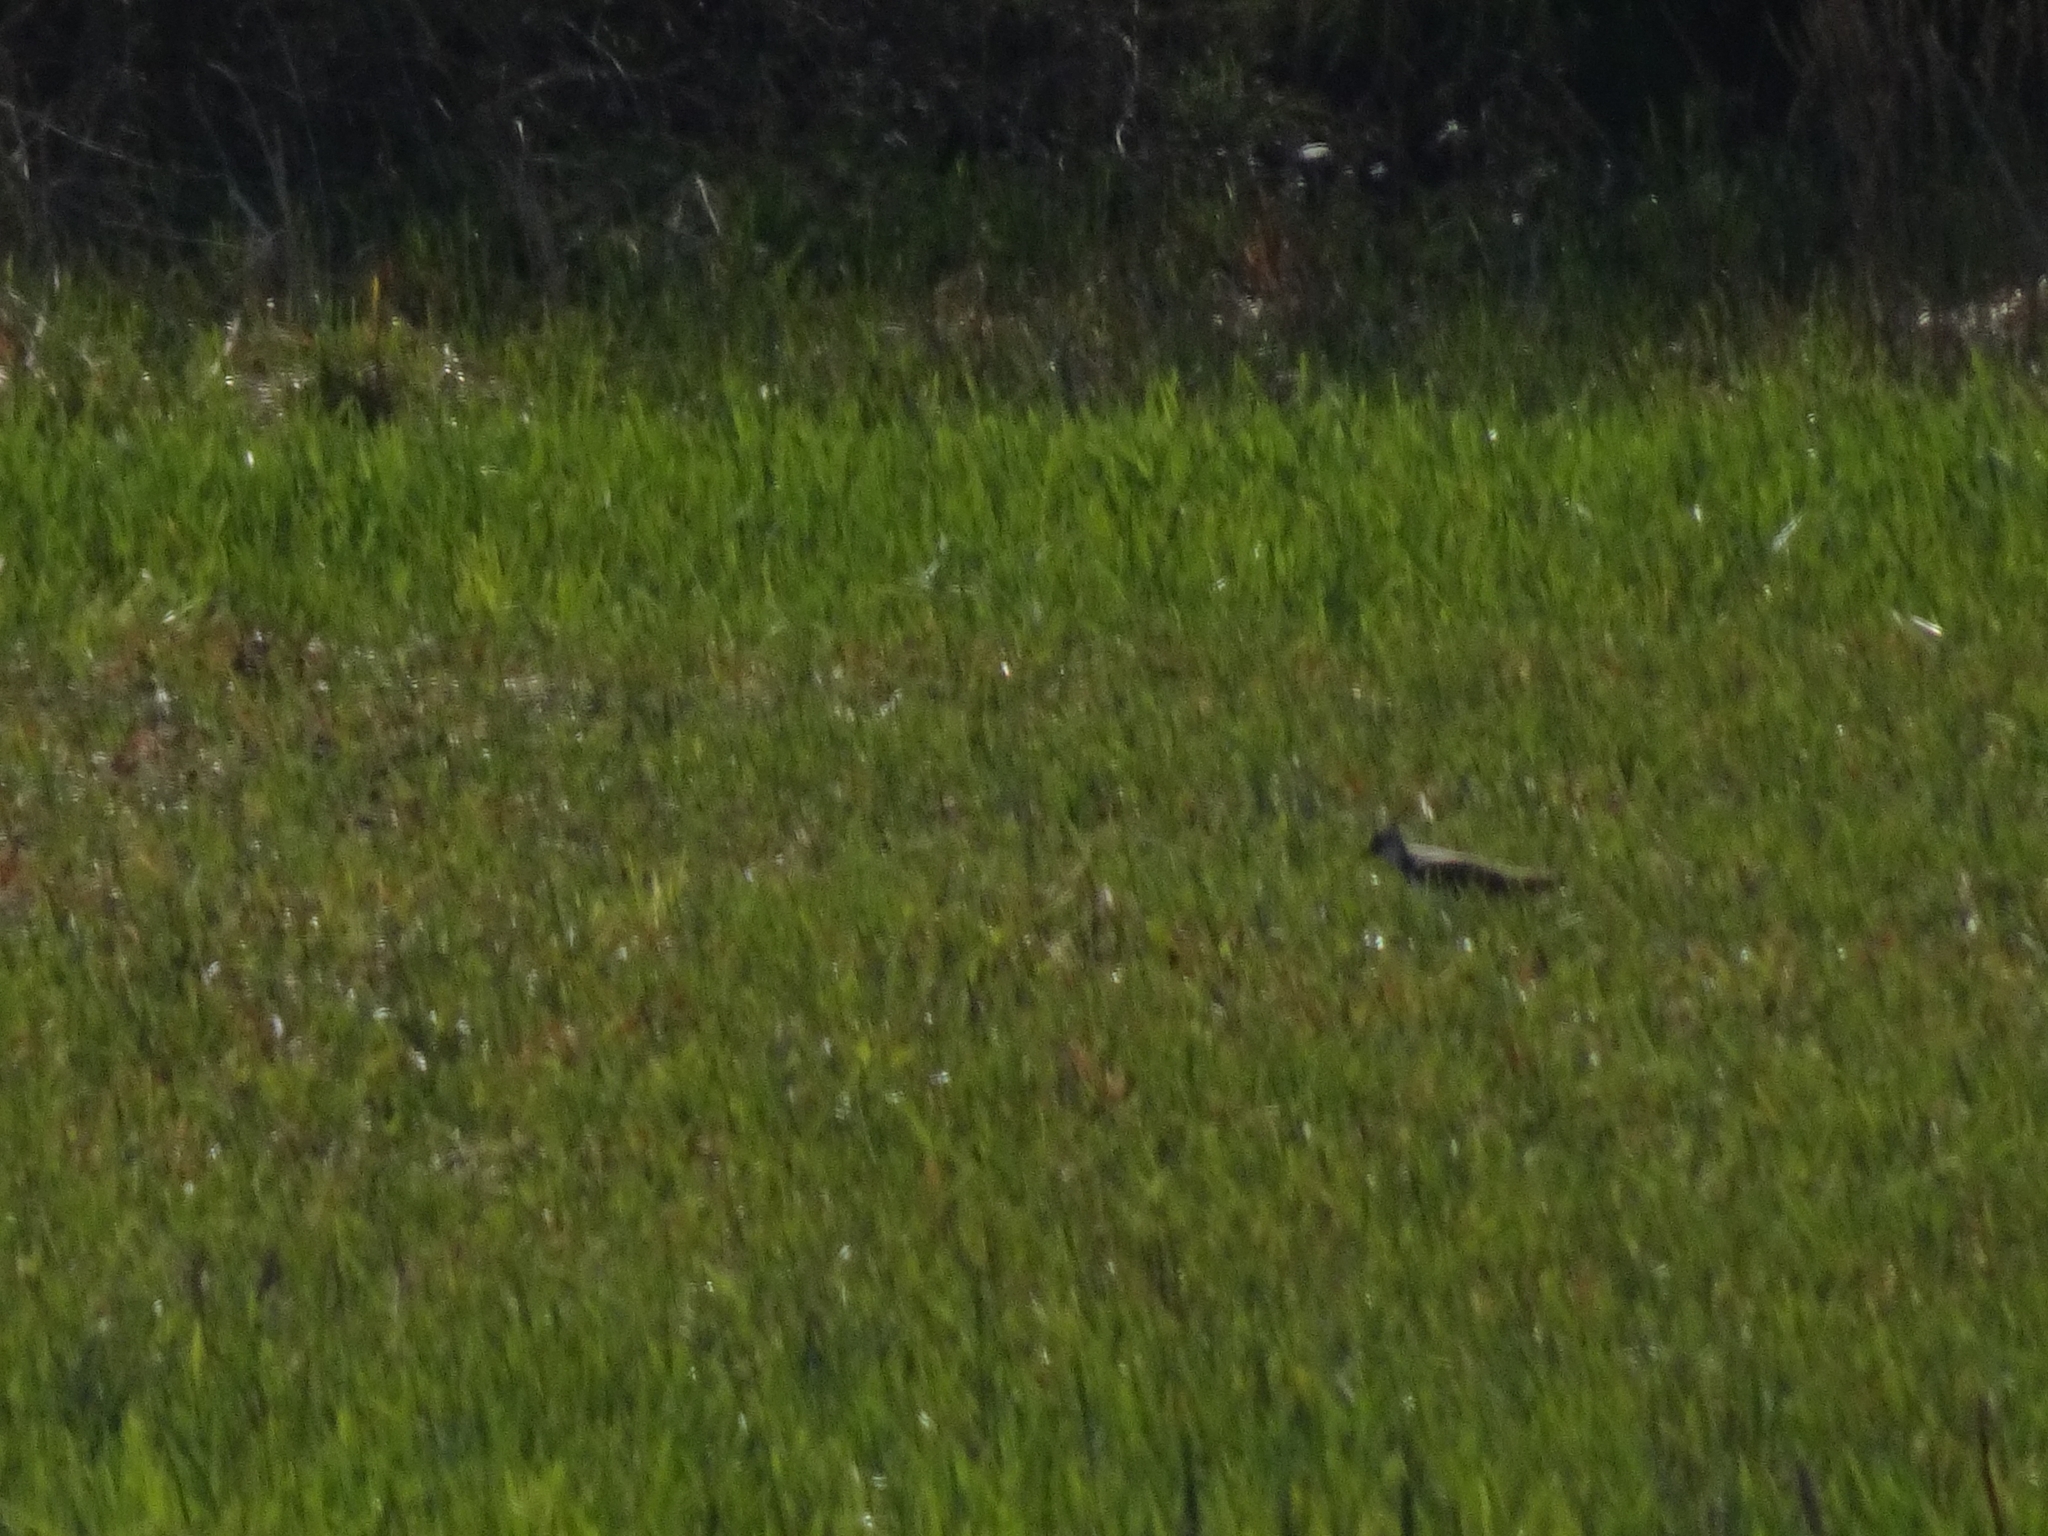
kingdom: Animalia
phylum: Chordata
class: Aves
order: Charadriiformes
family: Charadriidae
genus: Vanellus
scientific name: Vanellus vanellus
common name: Northern lapwing
